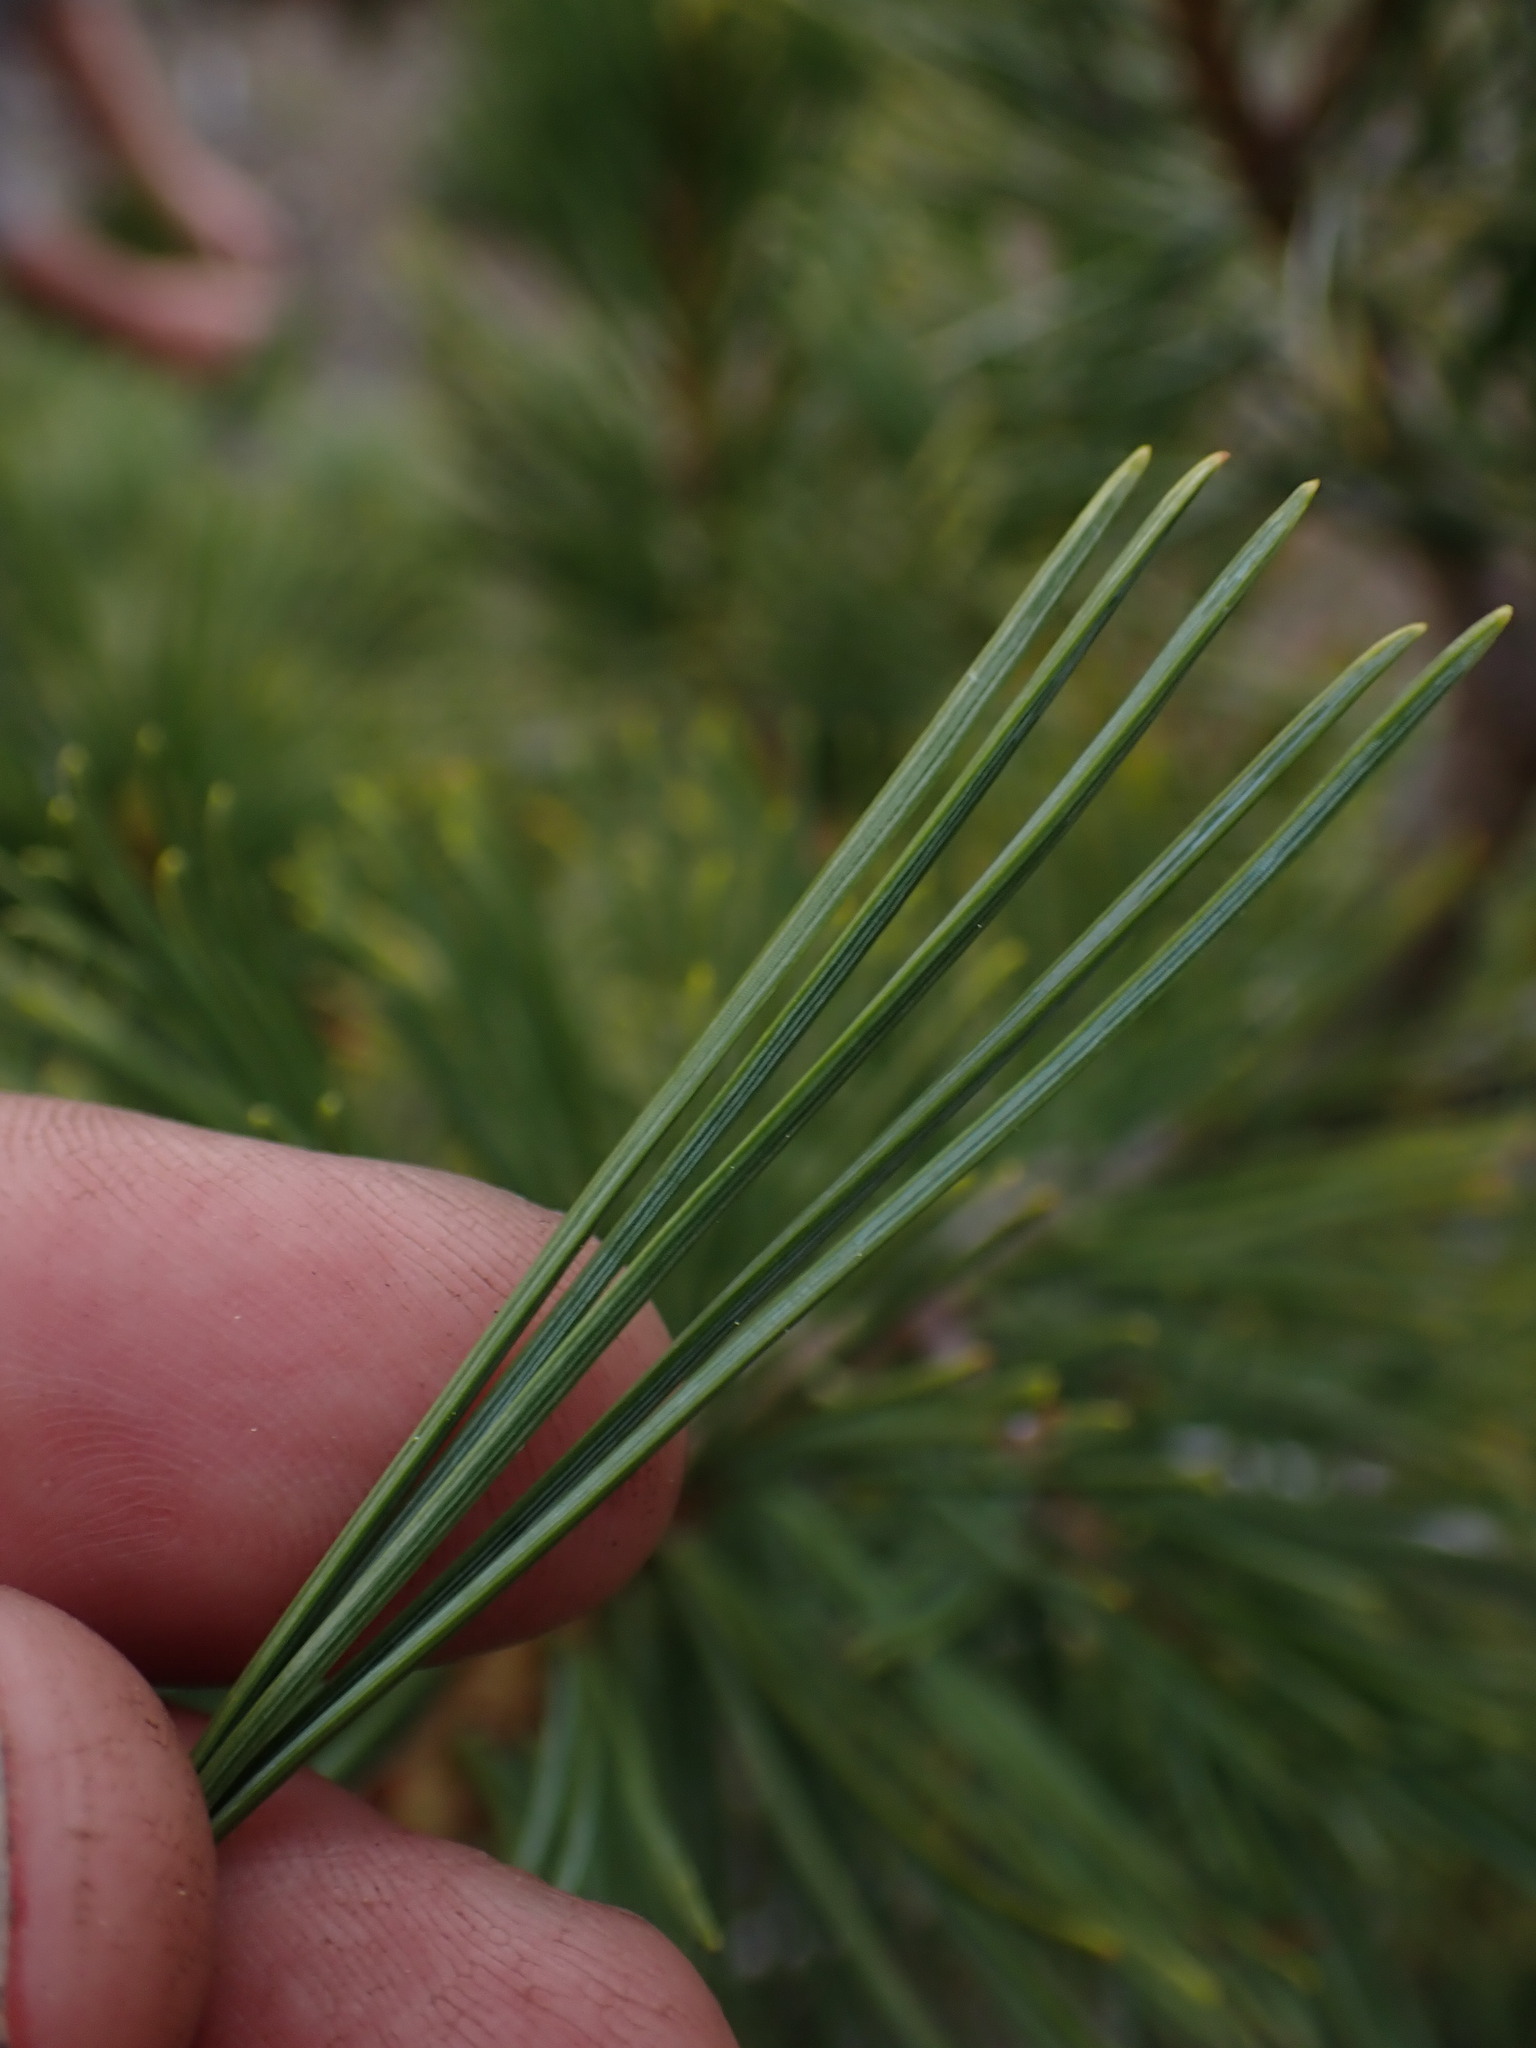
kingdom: Plantae
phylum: Tracheophyta
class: Pinopsida
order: Pinales
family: Pinaceae
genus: Pinus
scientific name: Pinus albicaulis
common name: Whitebark pine
